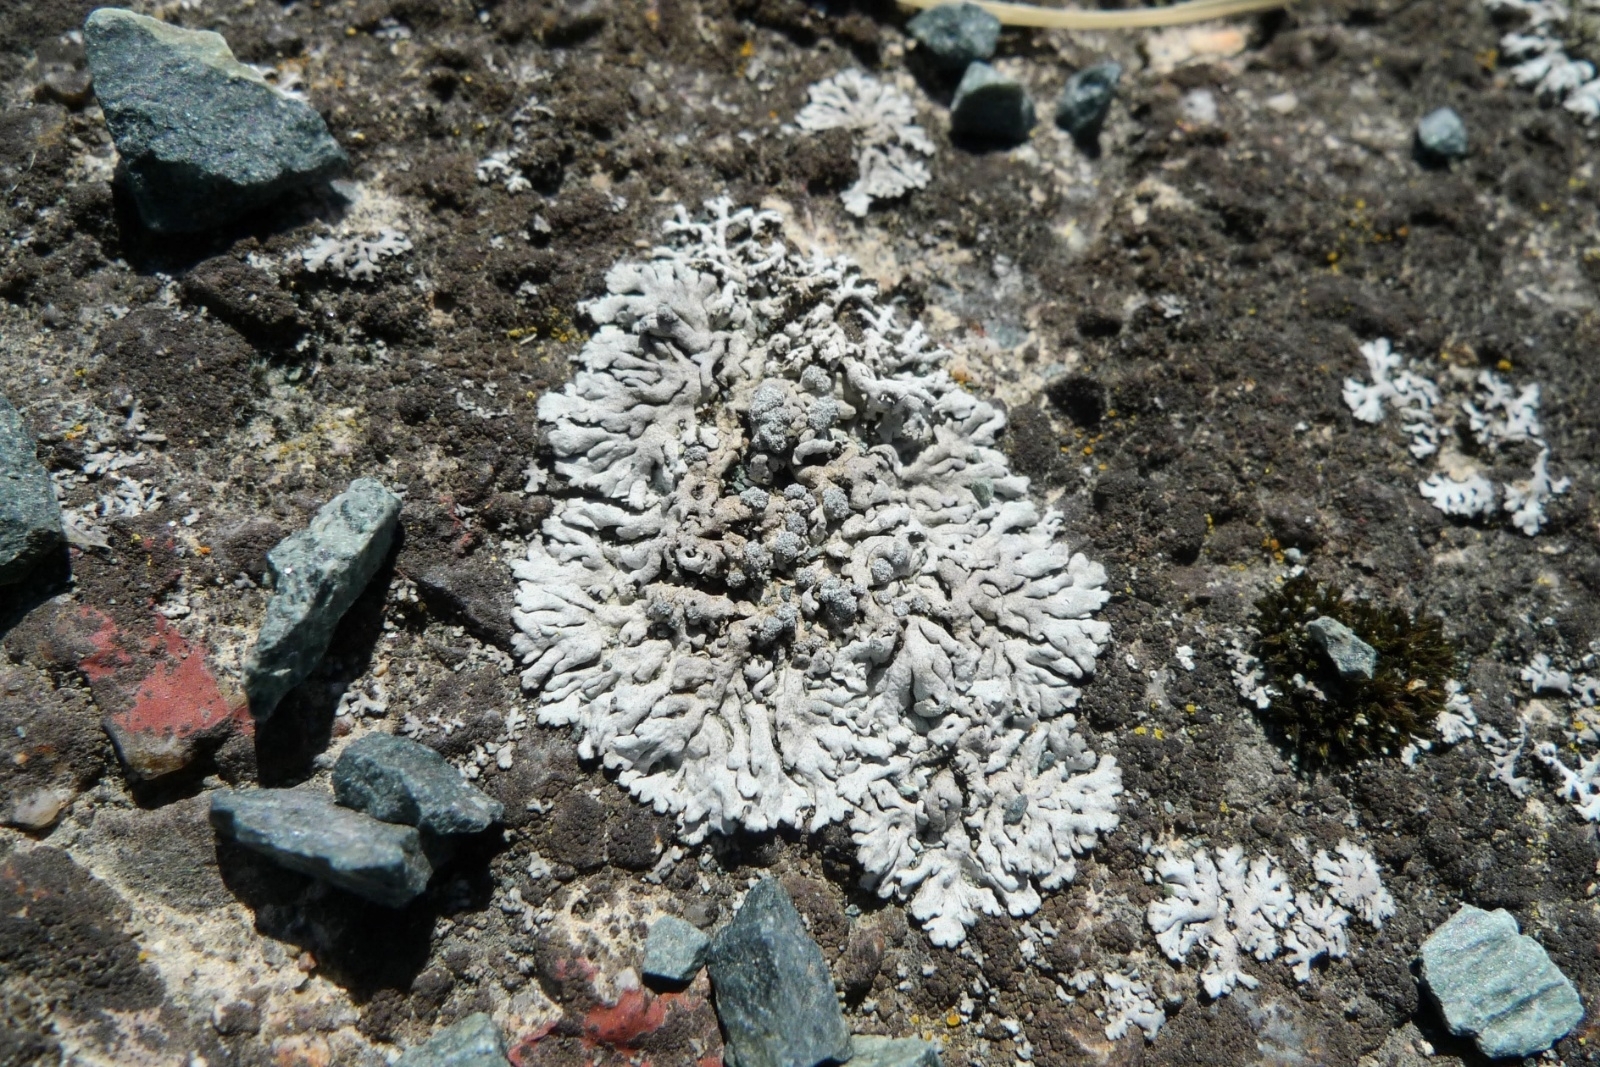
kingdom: Fungi
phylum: Ascomycota
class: Lecanoromycetes
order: Caliciales
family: Physciaceae
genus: Physcia
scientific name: Physcia caesia
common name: Blue-gray rosette lichen
